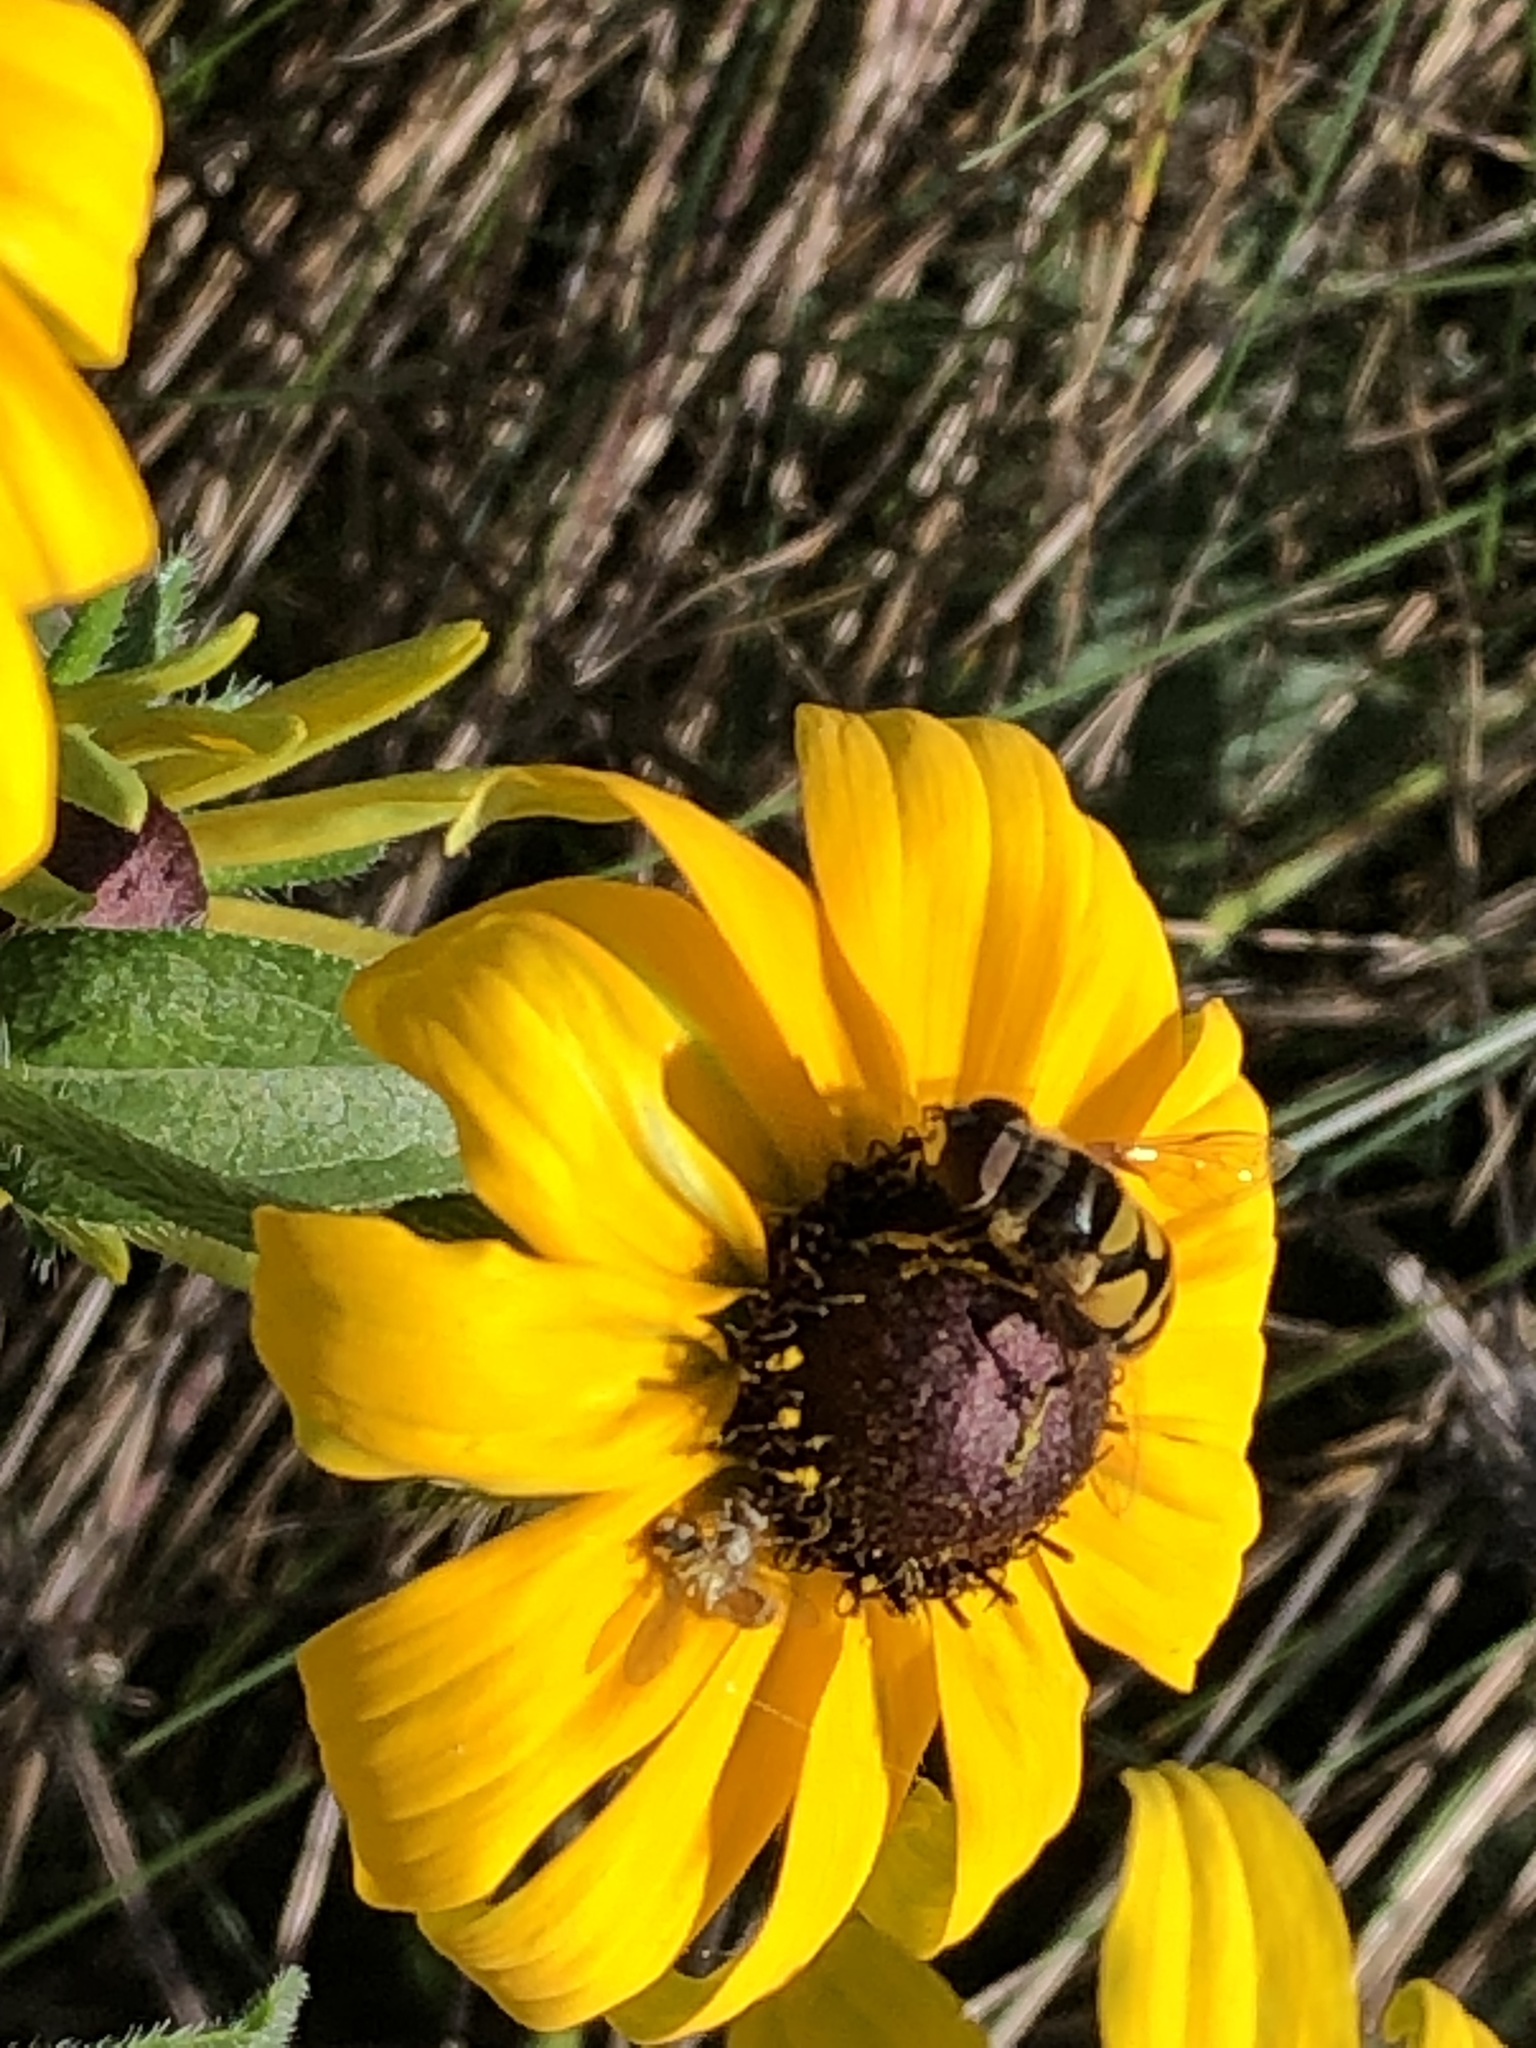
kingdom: Animalia
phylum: Arthropoda
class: Insecta
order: Diptera
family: Syrphidae
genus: Eristalis
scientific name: Eristalis transversa
